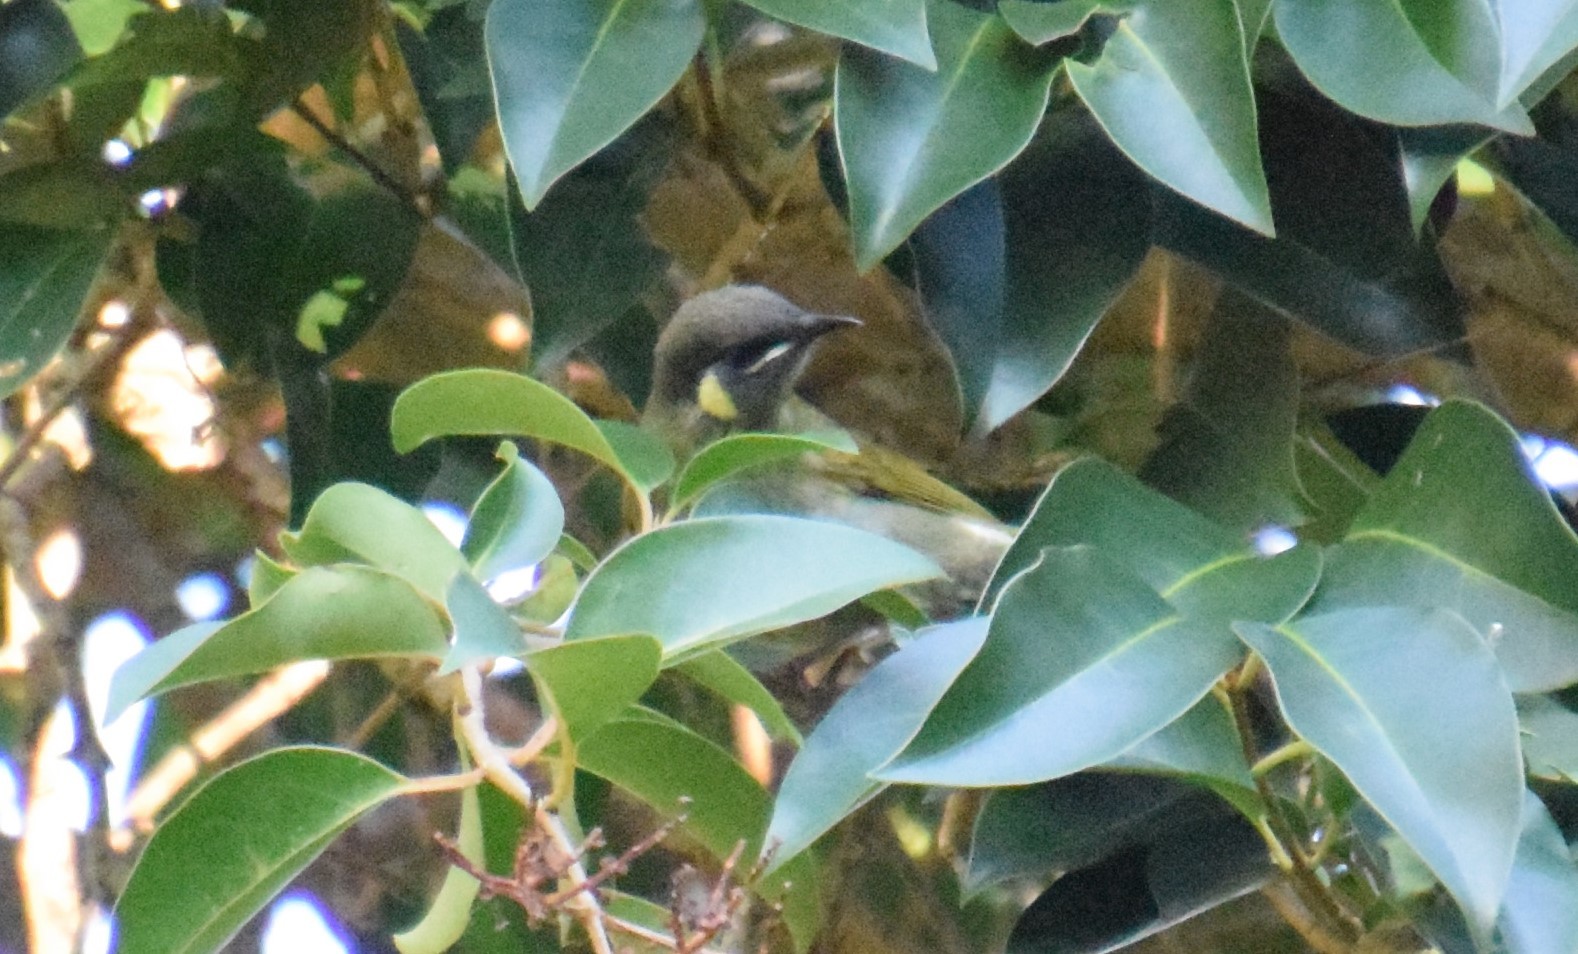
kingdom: Animalia
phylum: Chordata
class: Aves
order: Passeriformes
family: Meliphagidae
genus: Meliphaga
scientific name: Meliphaga lewinii
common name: Lewin's honeyeater
